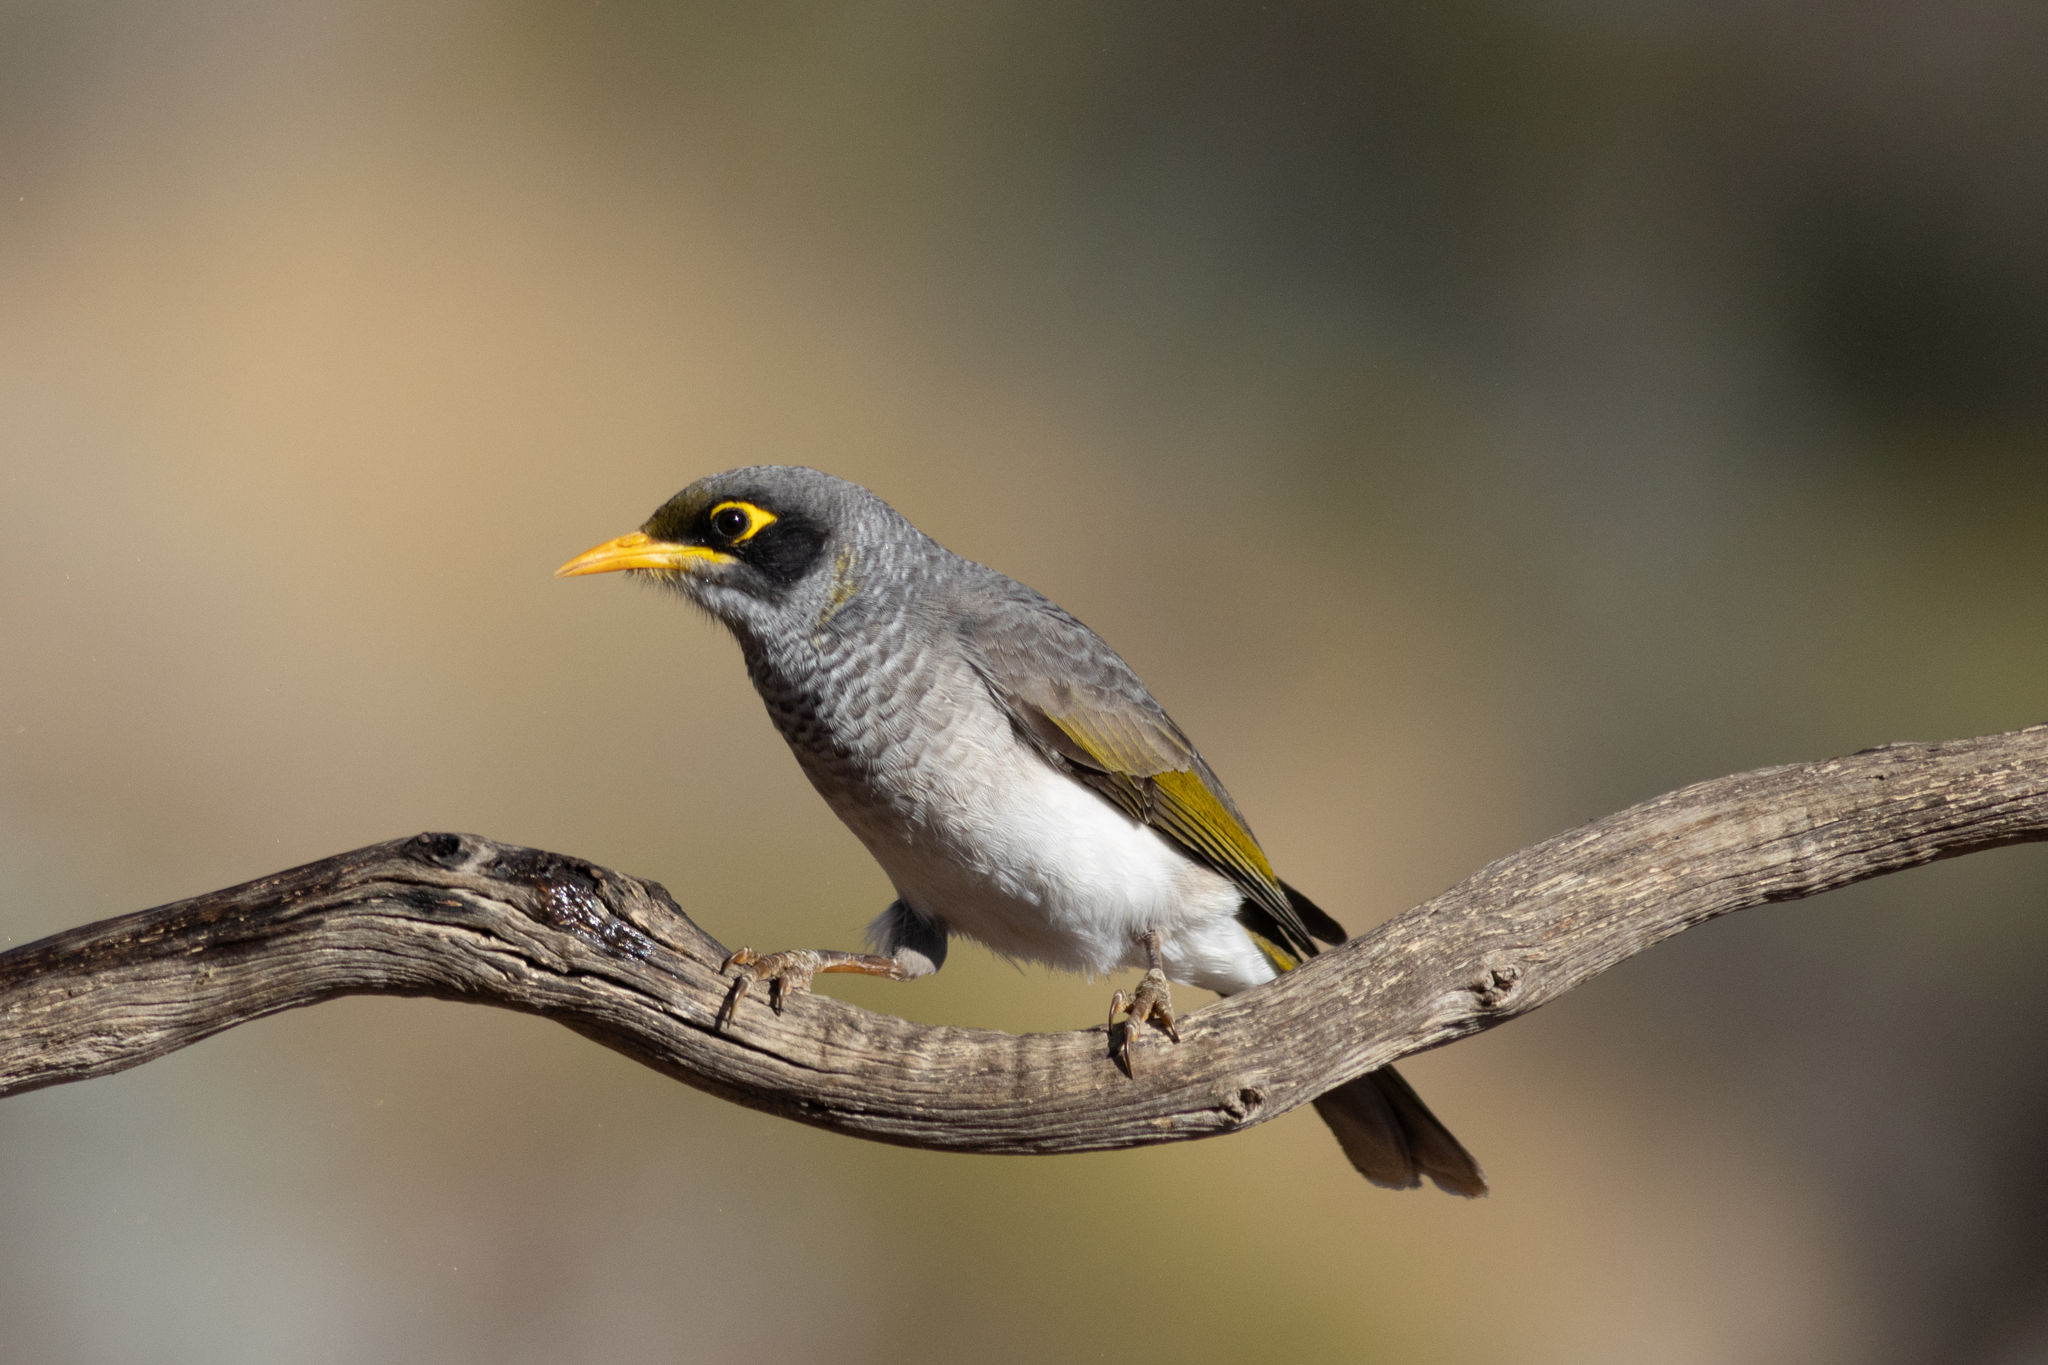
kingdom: Animalia
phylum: Chordata
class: Aves
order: Passeriformes
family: Meliphagidae
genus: Manorina
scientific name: Manorina flavigula
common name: Yellow-throated miner
